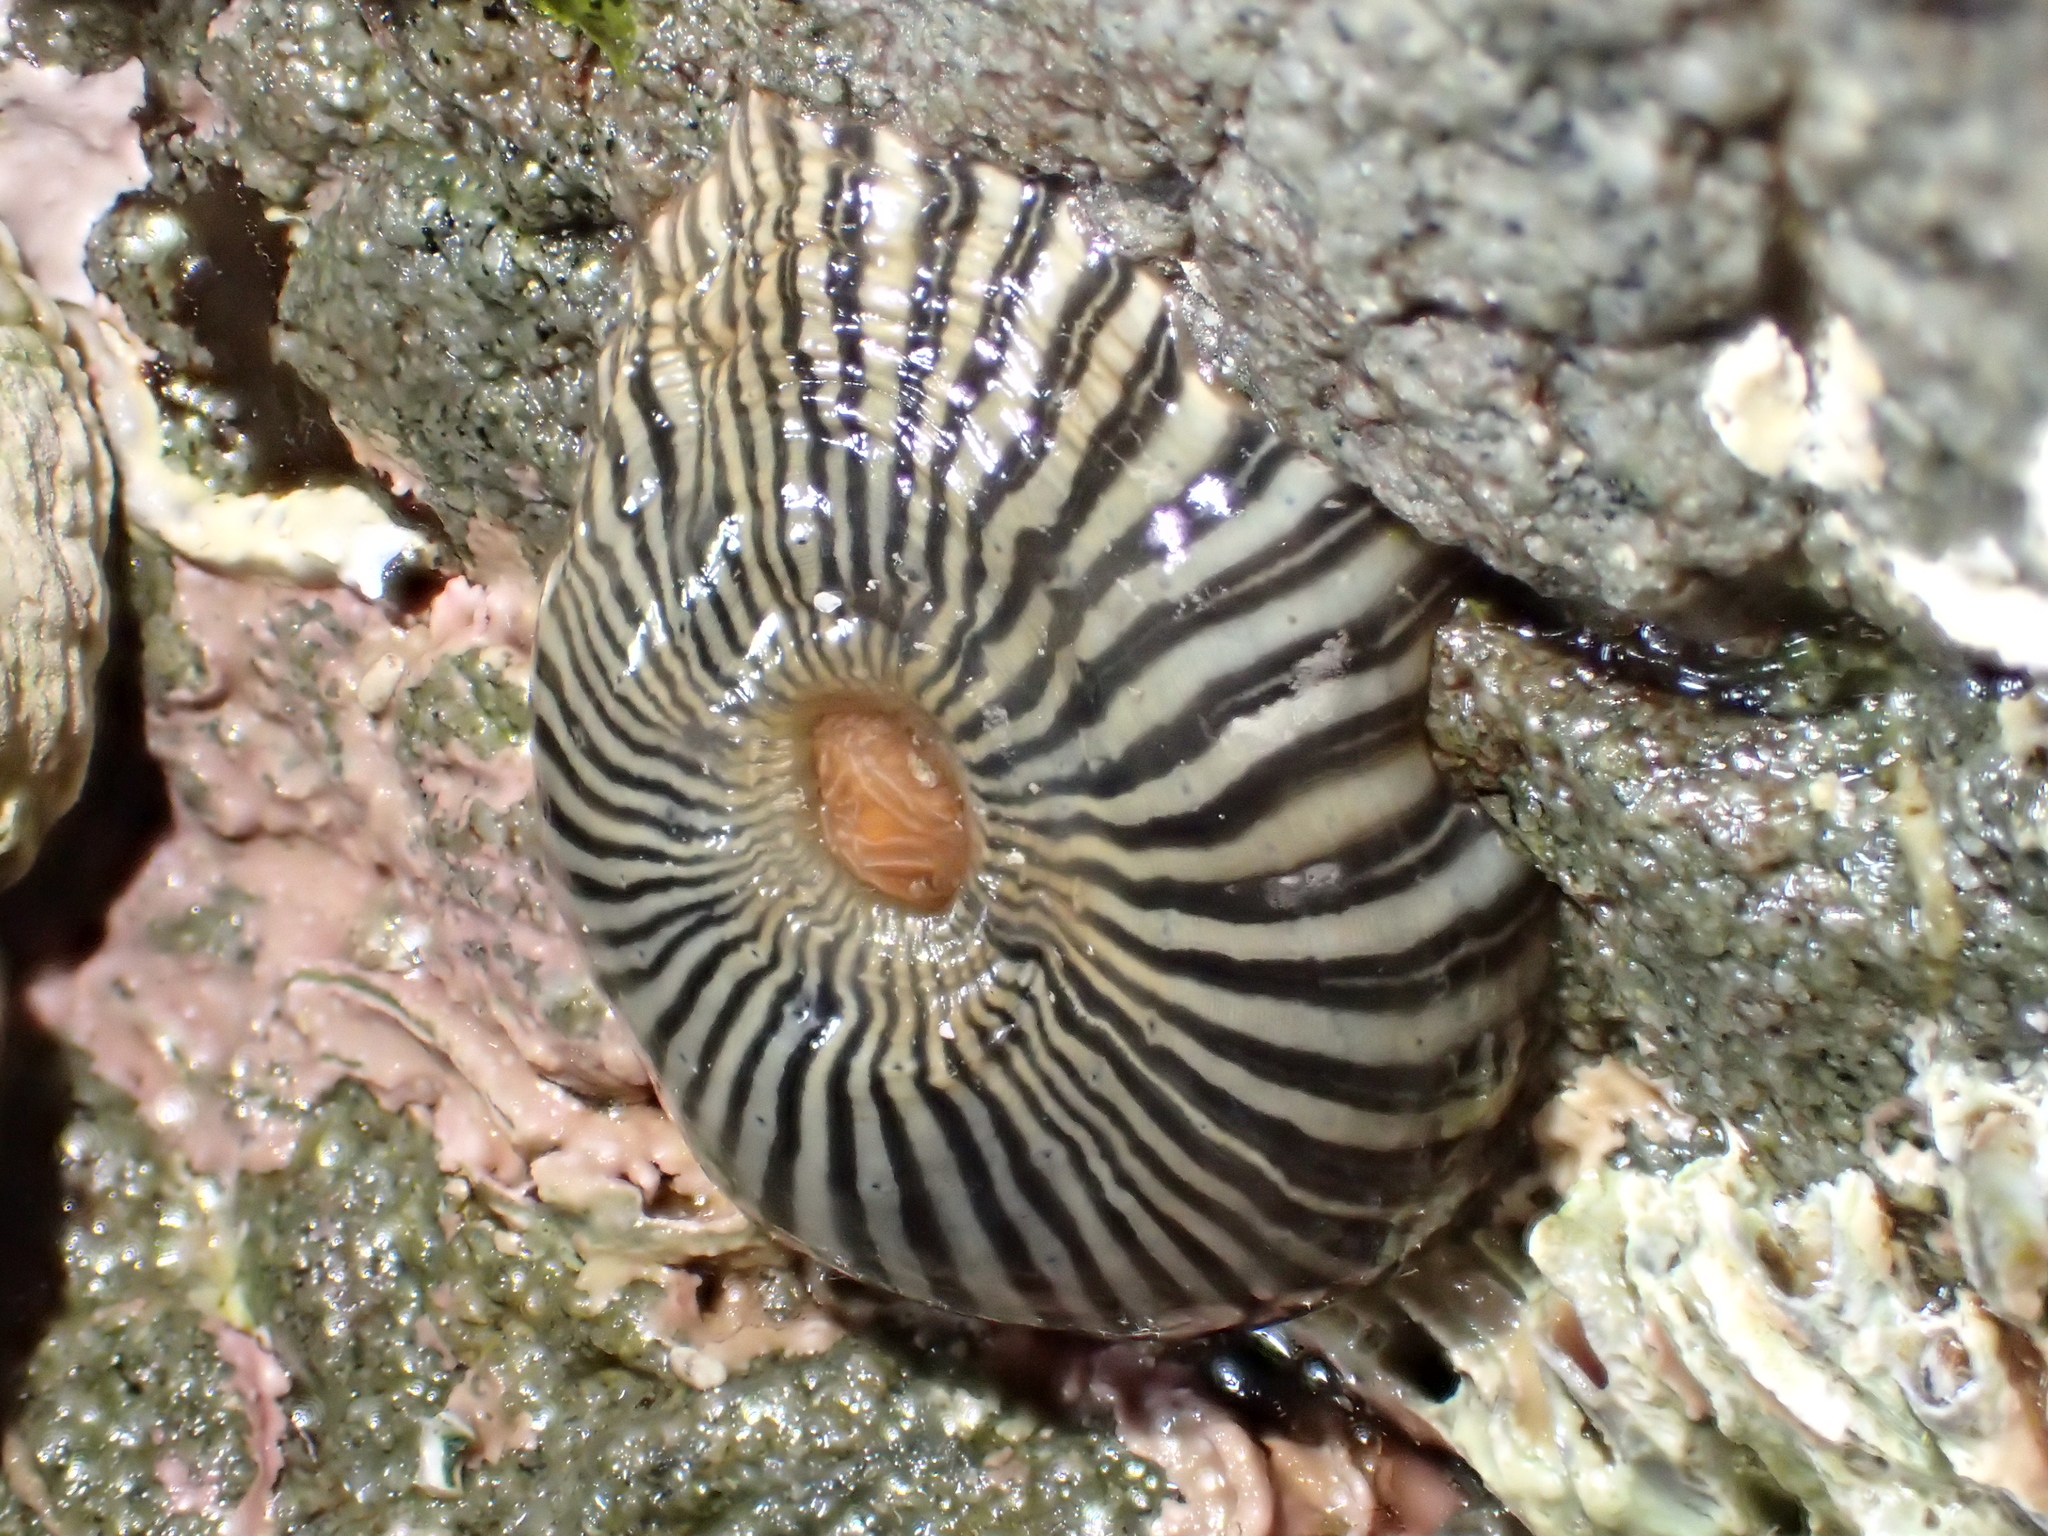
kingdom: Animalia
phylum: Cnidaria
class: Anthozoa
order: Actiniaria
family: Diadumenidae
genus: Diadumene
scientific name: Diadumene neozelanica
